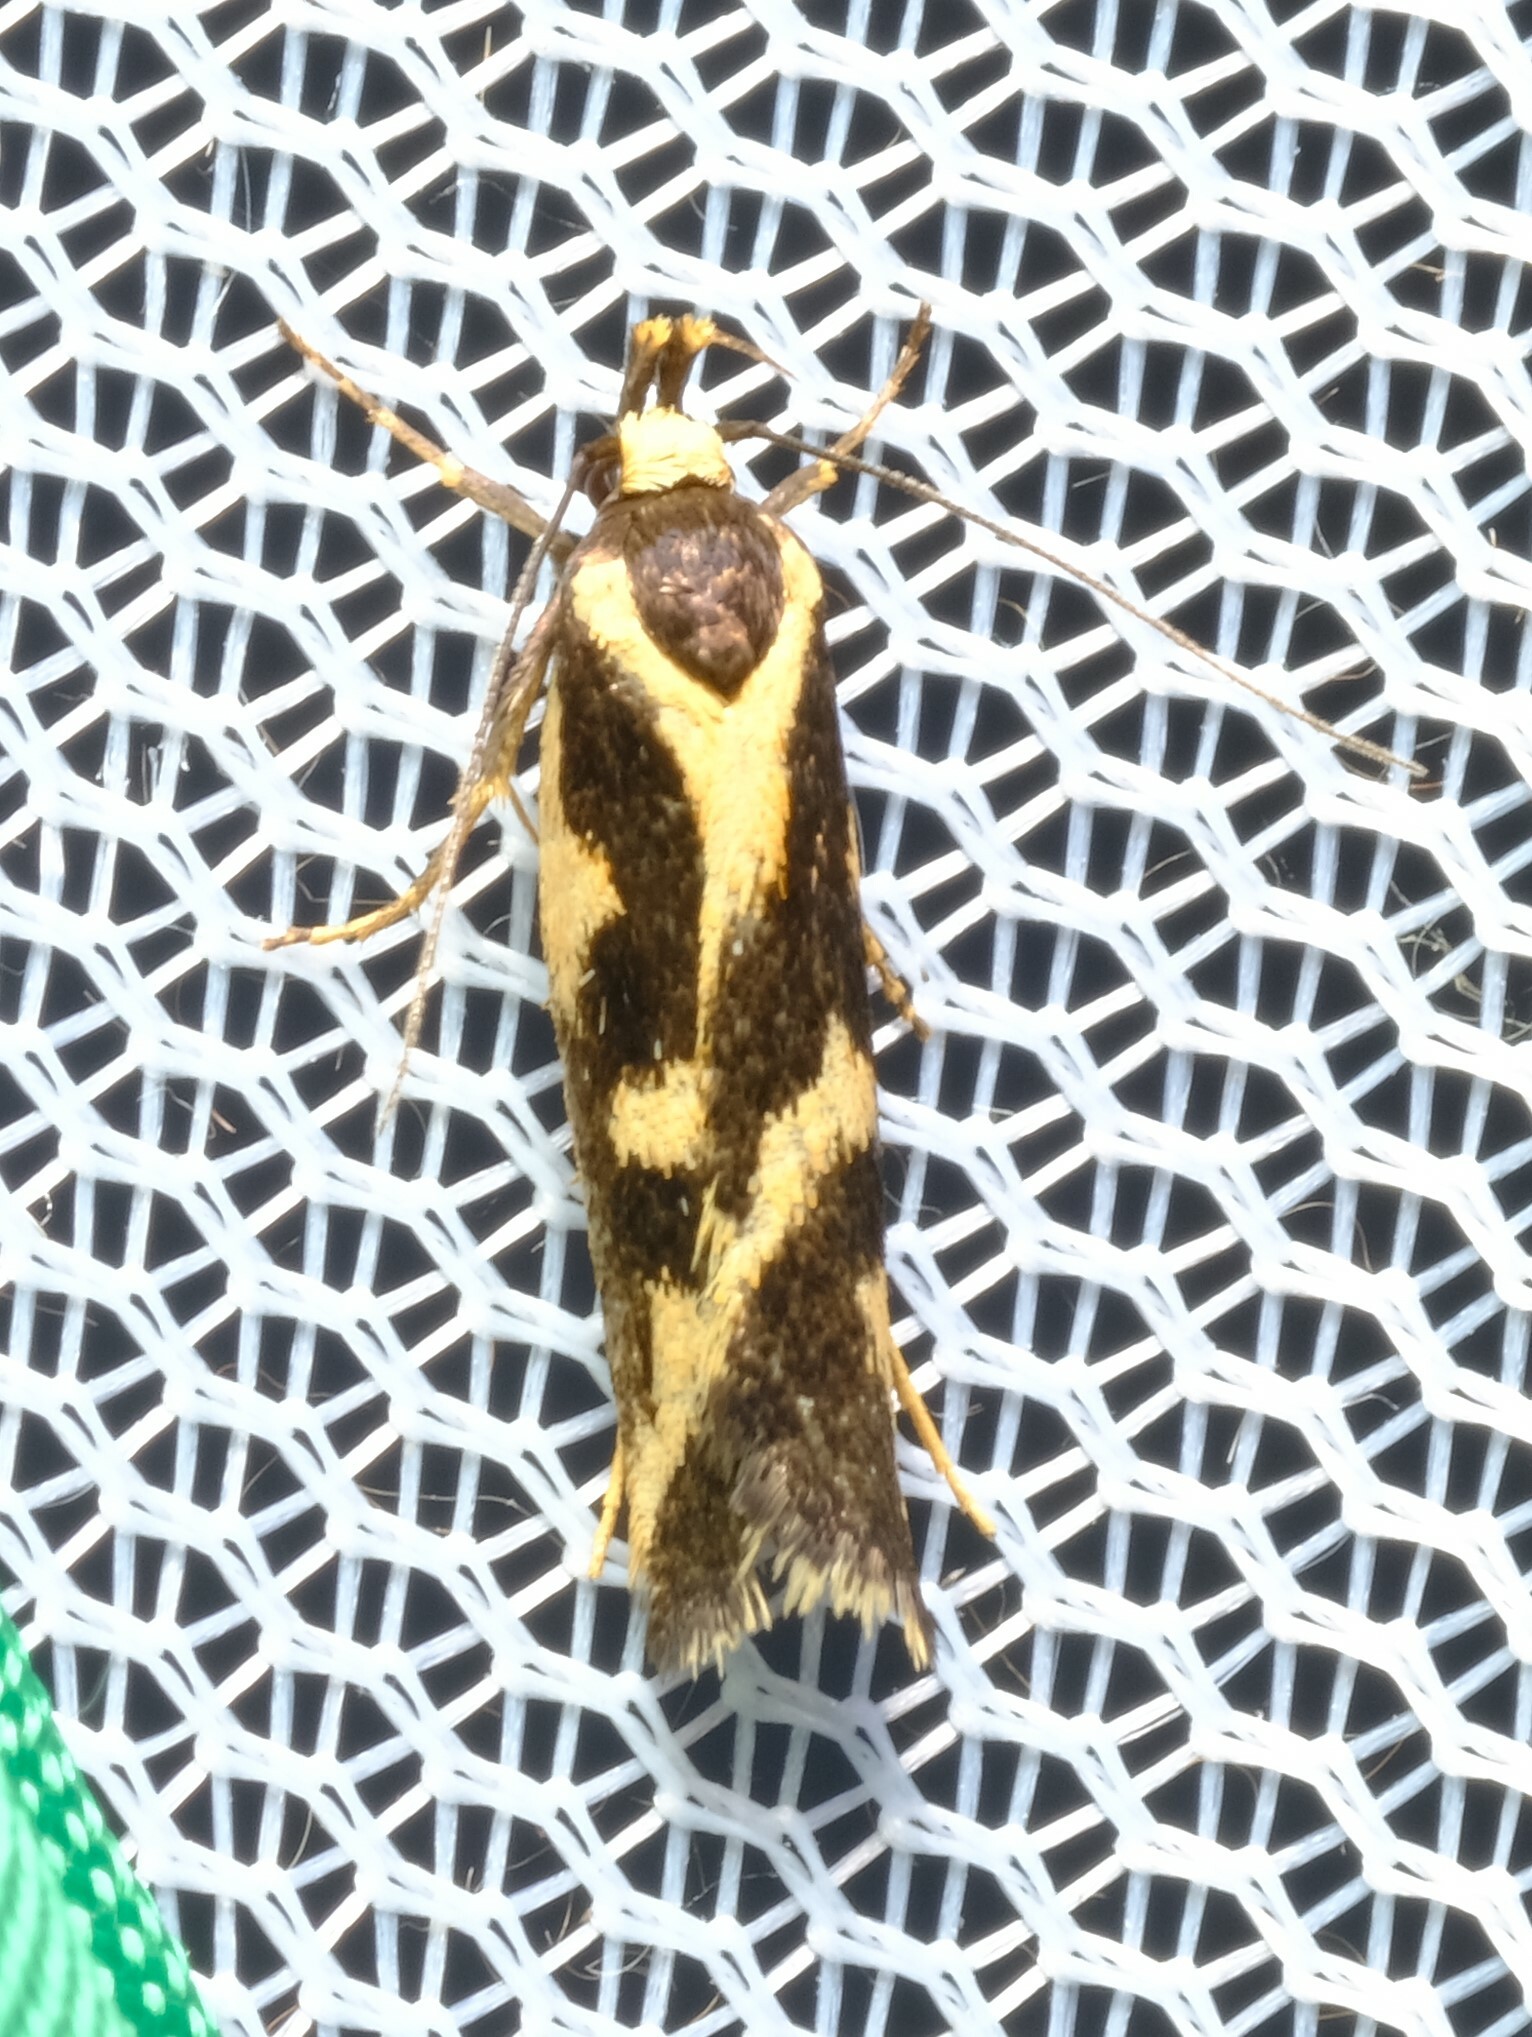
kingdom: Animalia
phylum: Arthropoda
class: Insecta
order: Lepidoptera
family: Oecophoridae
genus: Epithymema
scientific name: Epithymema incomposita
